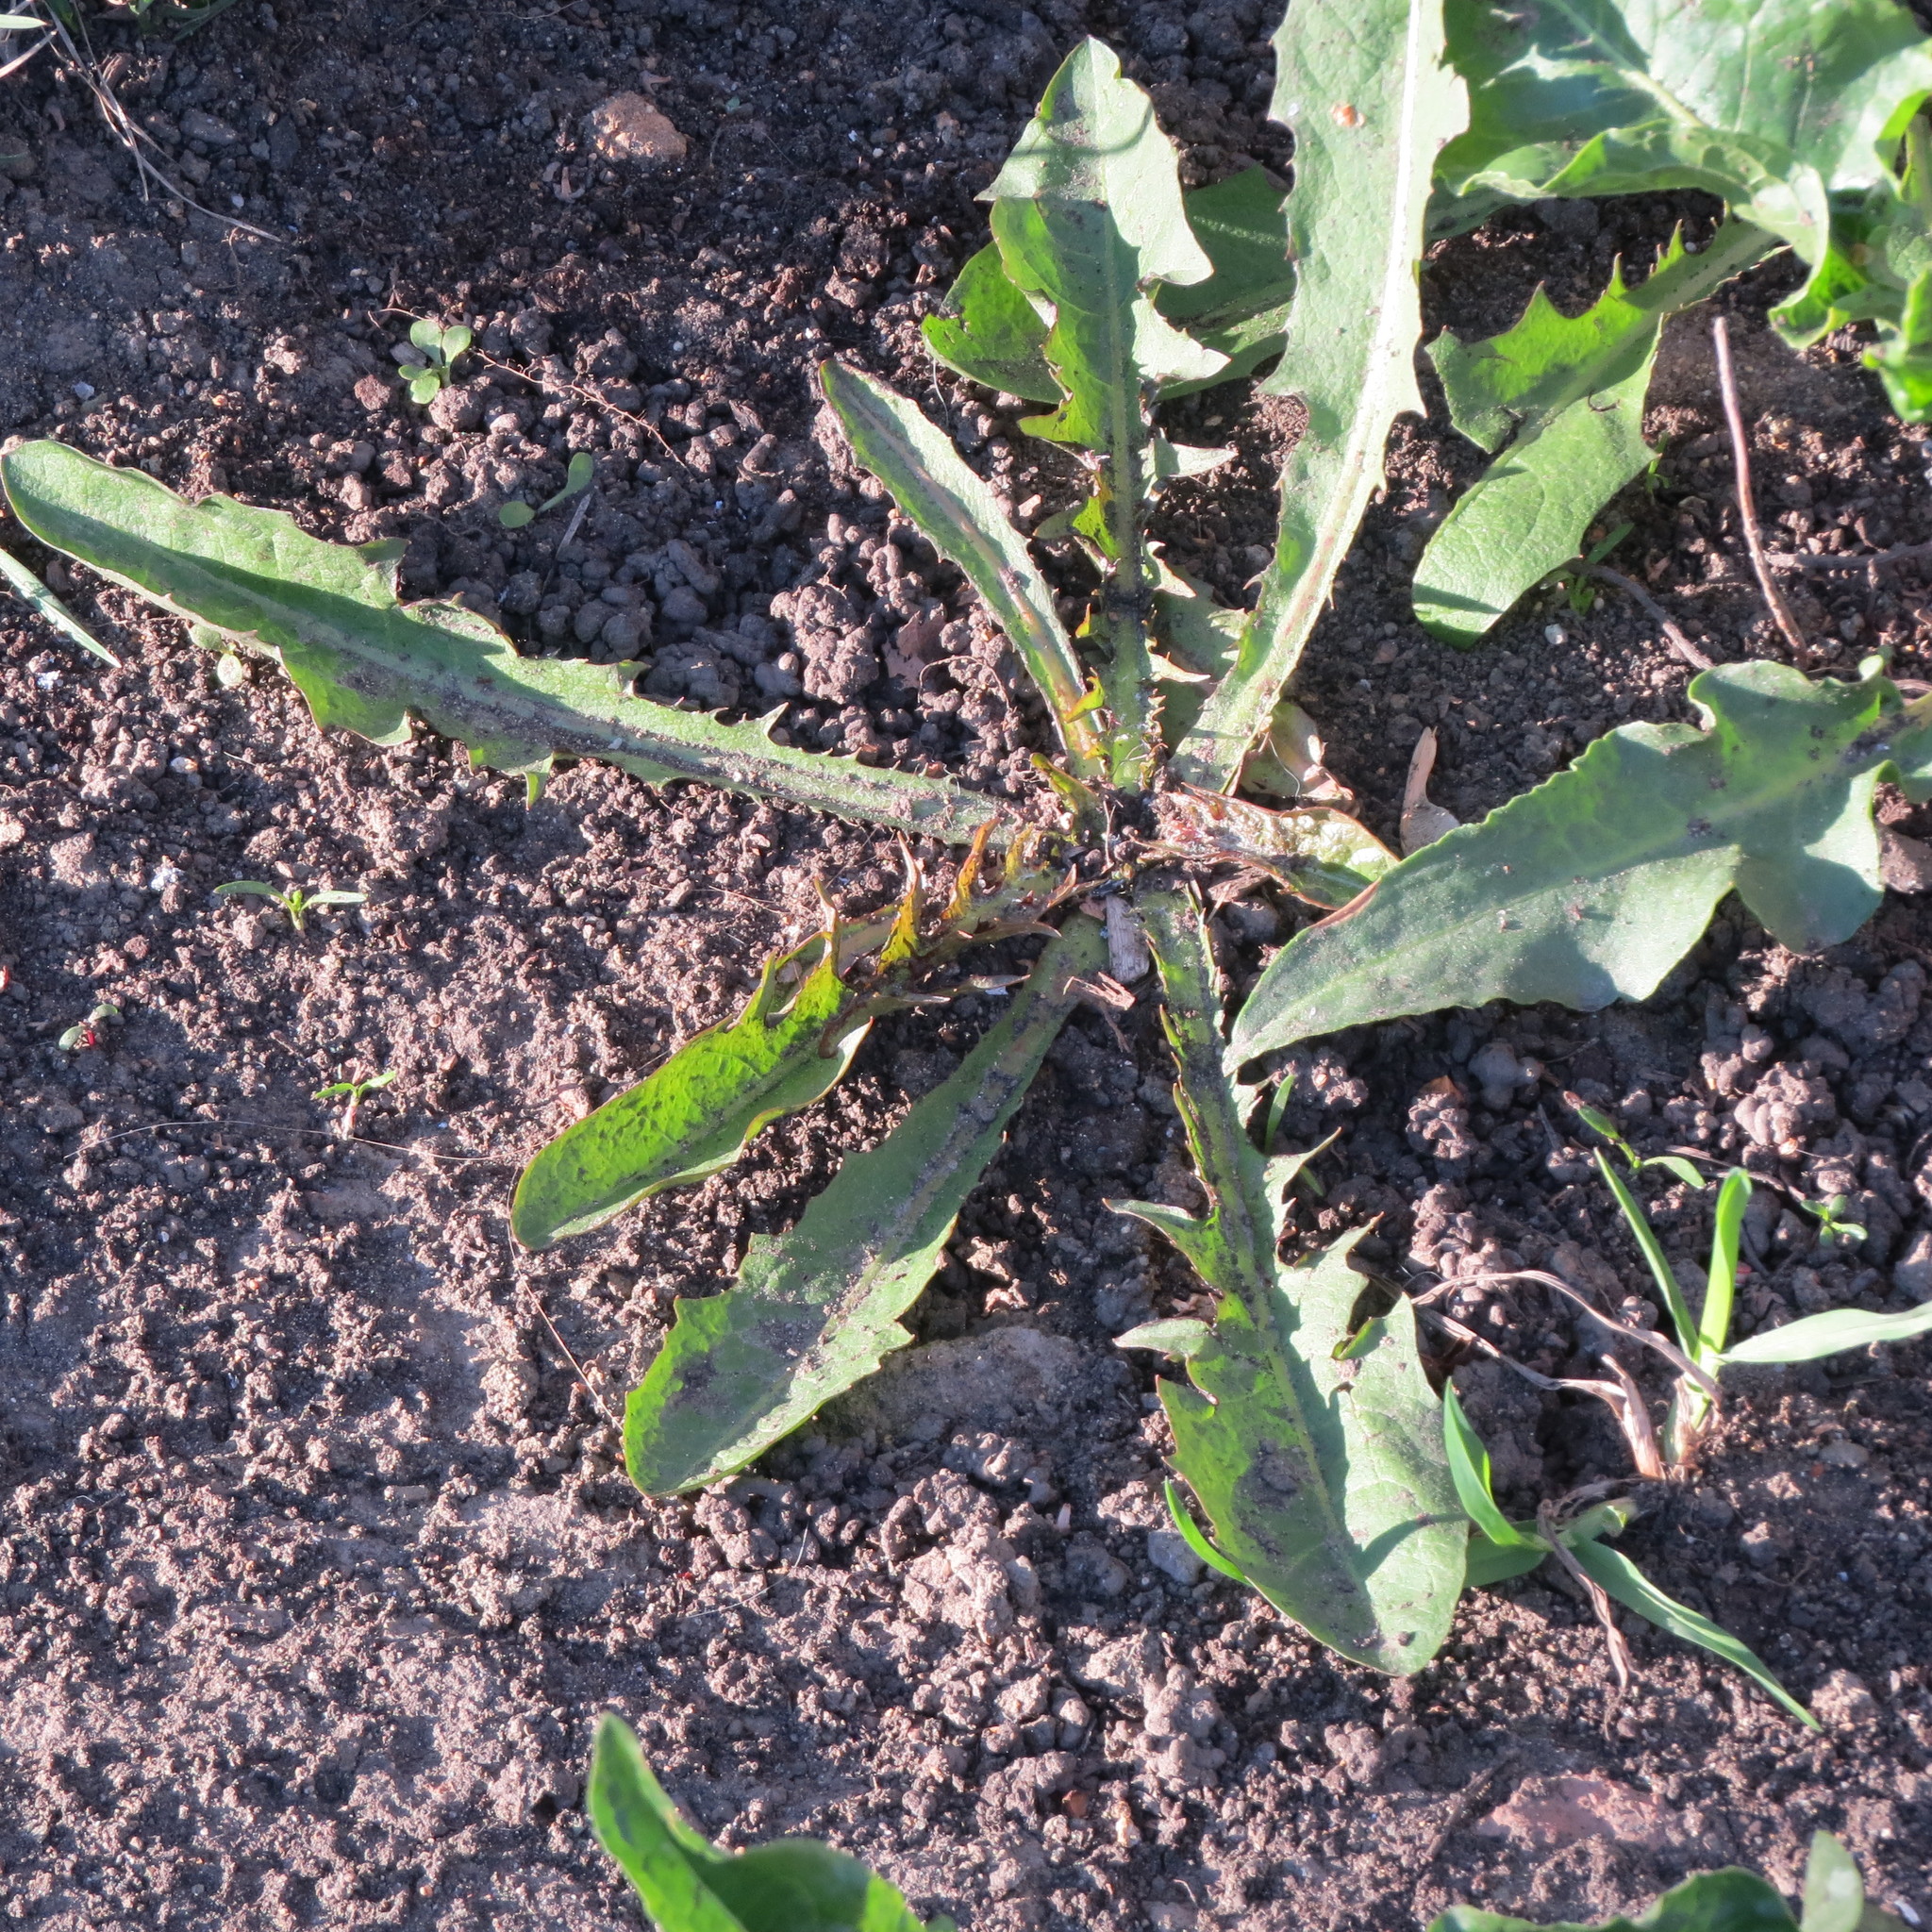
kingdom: Plantae
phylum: Tracheophyta
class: Magnoliopsida
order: Asterales
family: Asteraceae
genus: Taraxacum
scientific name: Taraxacum officinale
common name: Common dandelion
